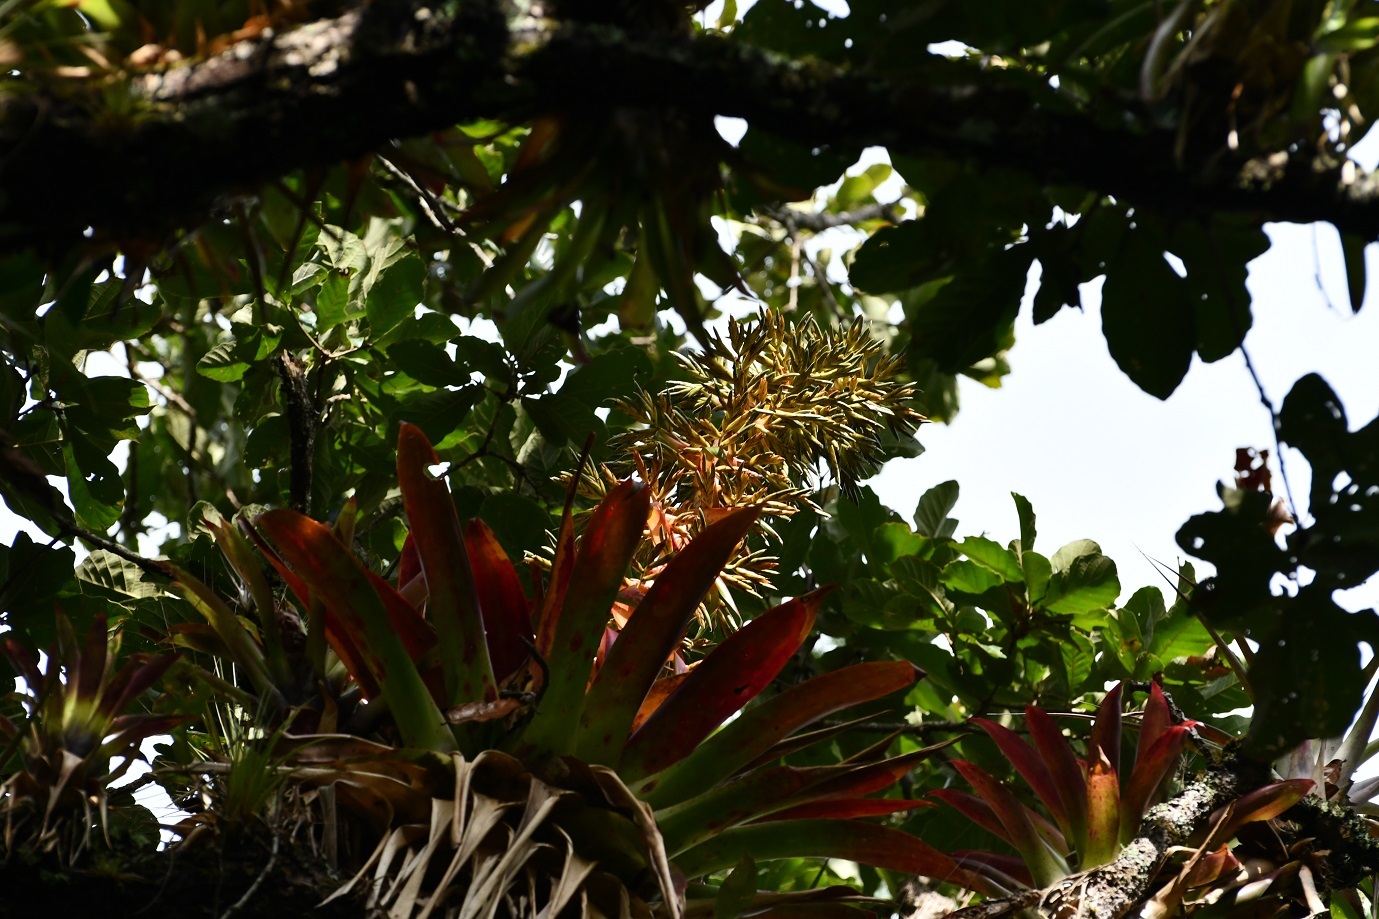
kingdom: Plantae
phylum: Tracheophyta
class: Liliopsida
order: Poales
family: Bromeliaceae
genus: Tillandsia
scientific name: Tillandsia excelsa
